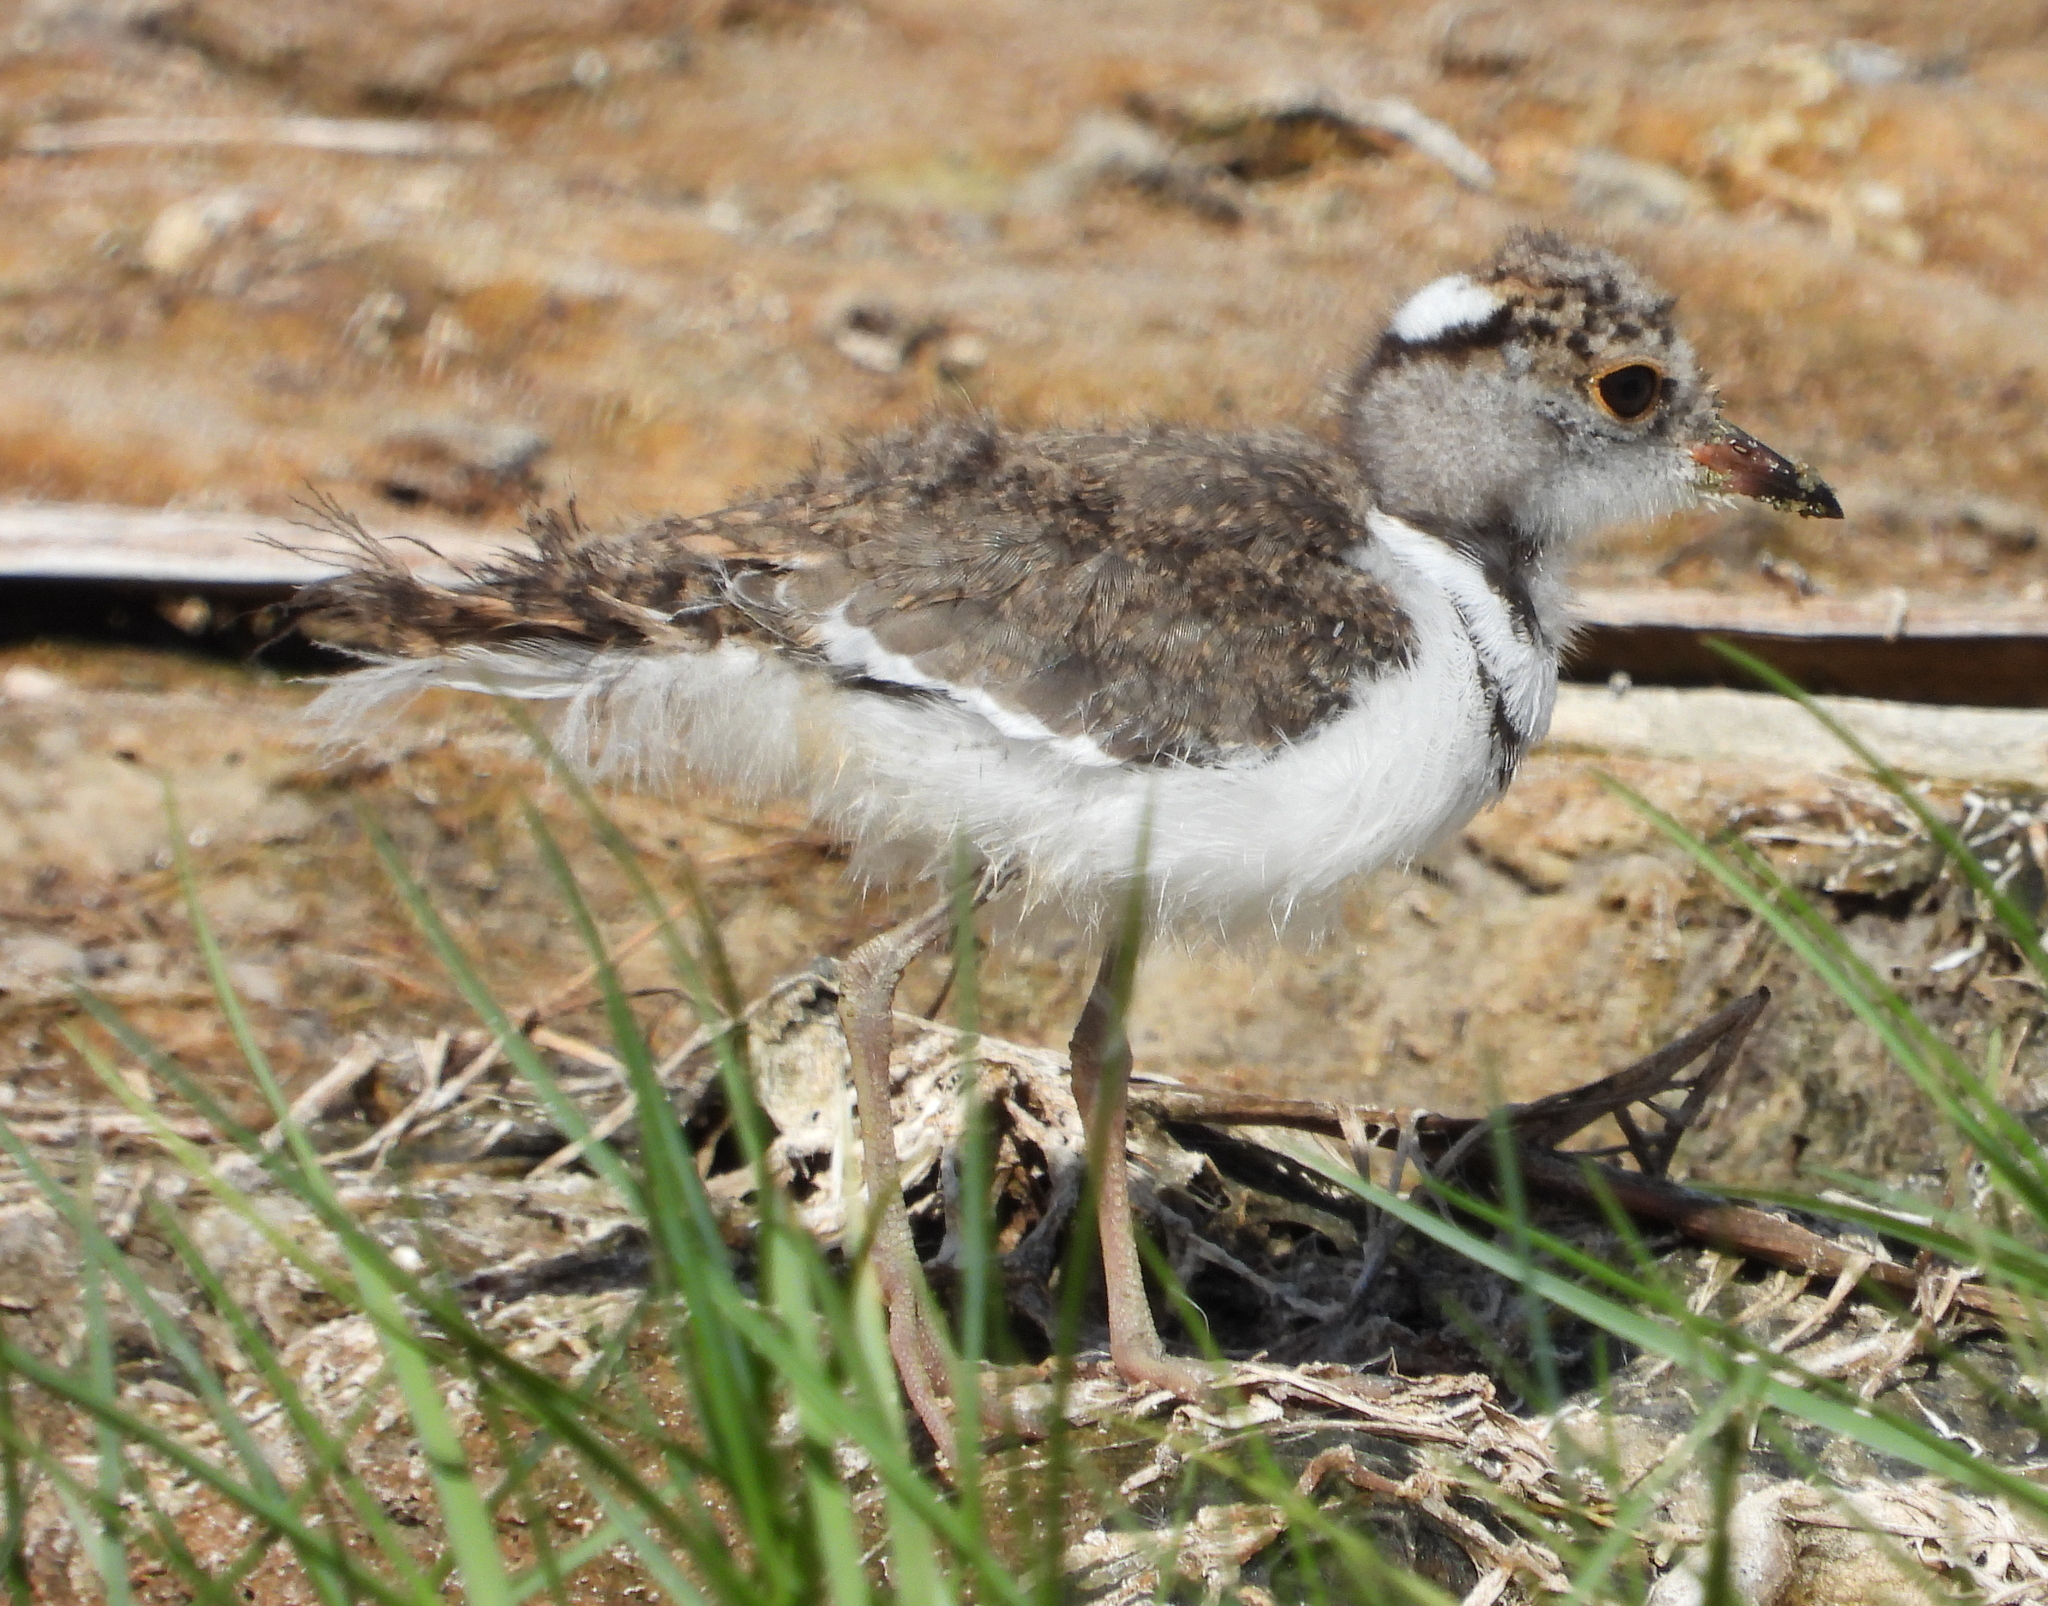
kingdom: Animalia
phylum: Chordata
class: Aves
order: Charadriiformes
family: Charadriidae
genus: Charadrius
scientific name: Charadrius tricollaris
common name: Three-banded plover
